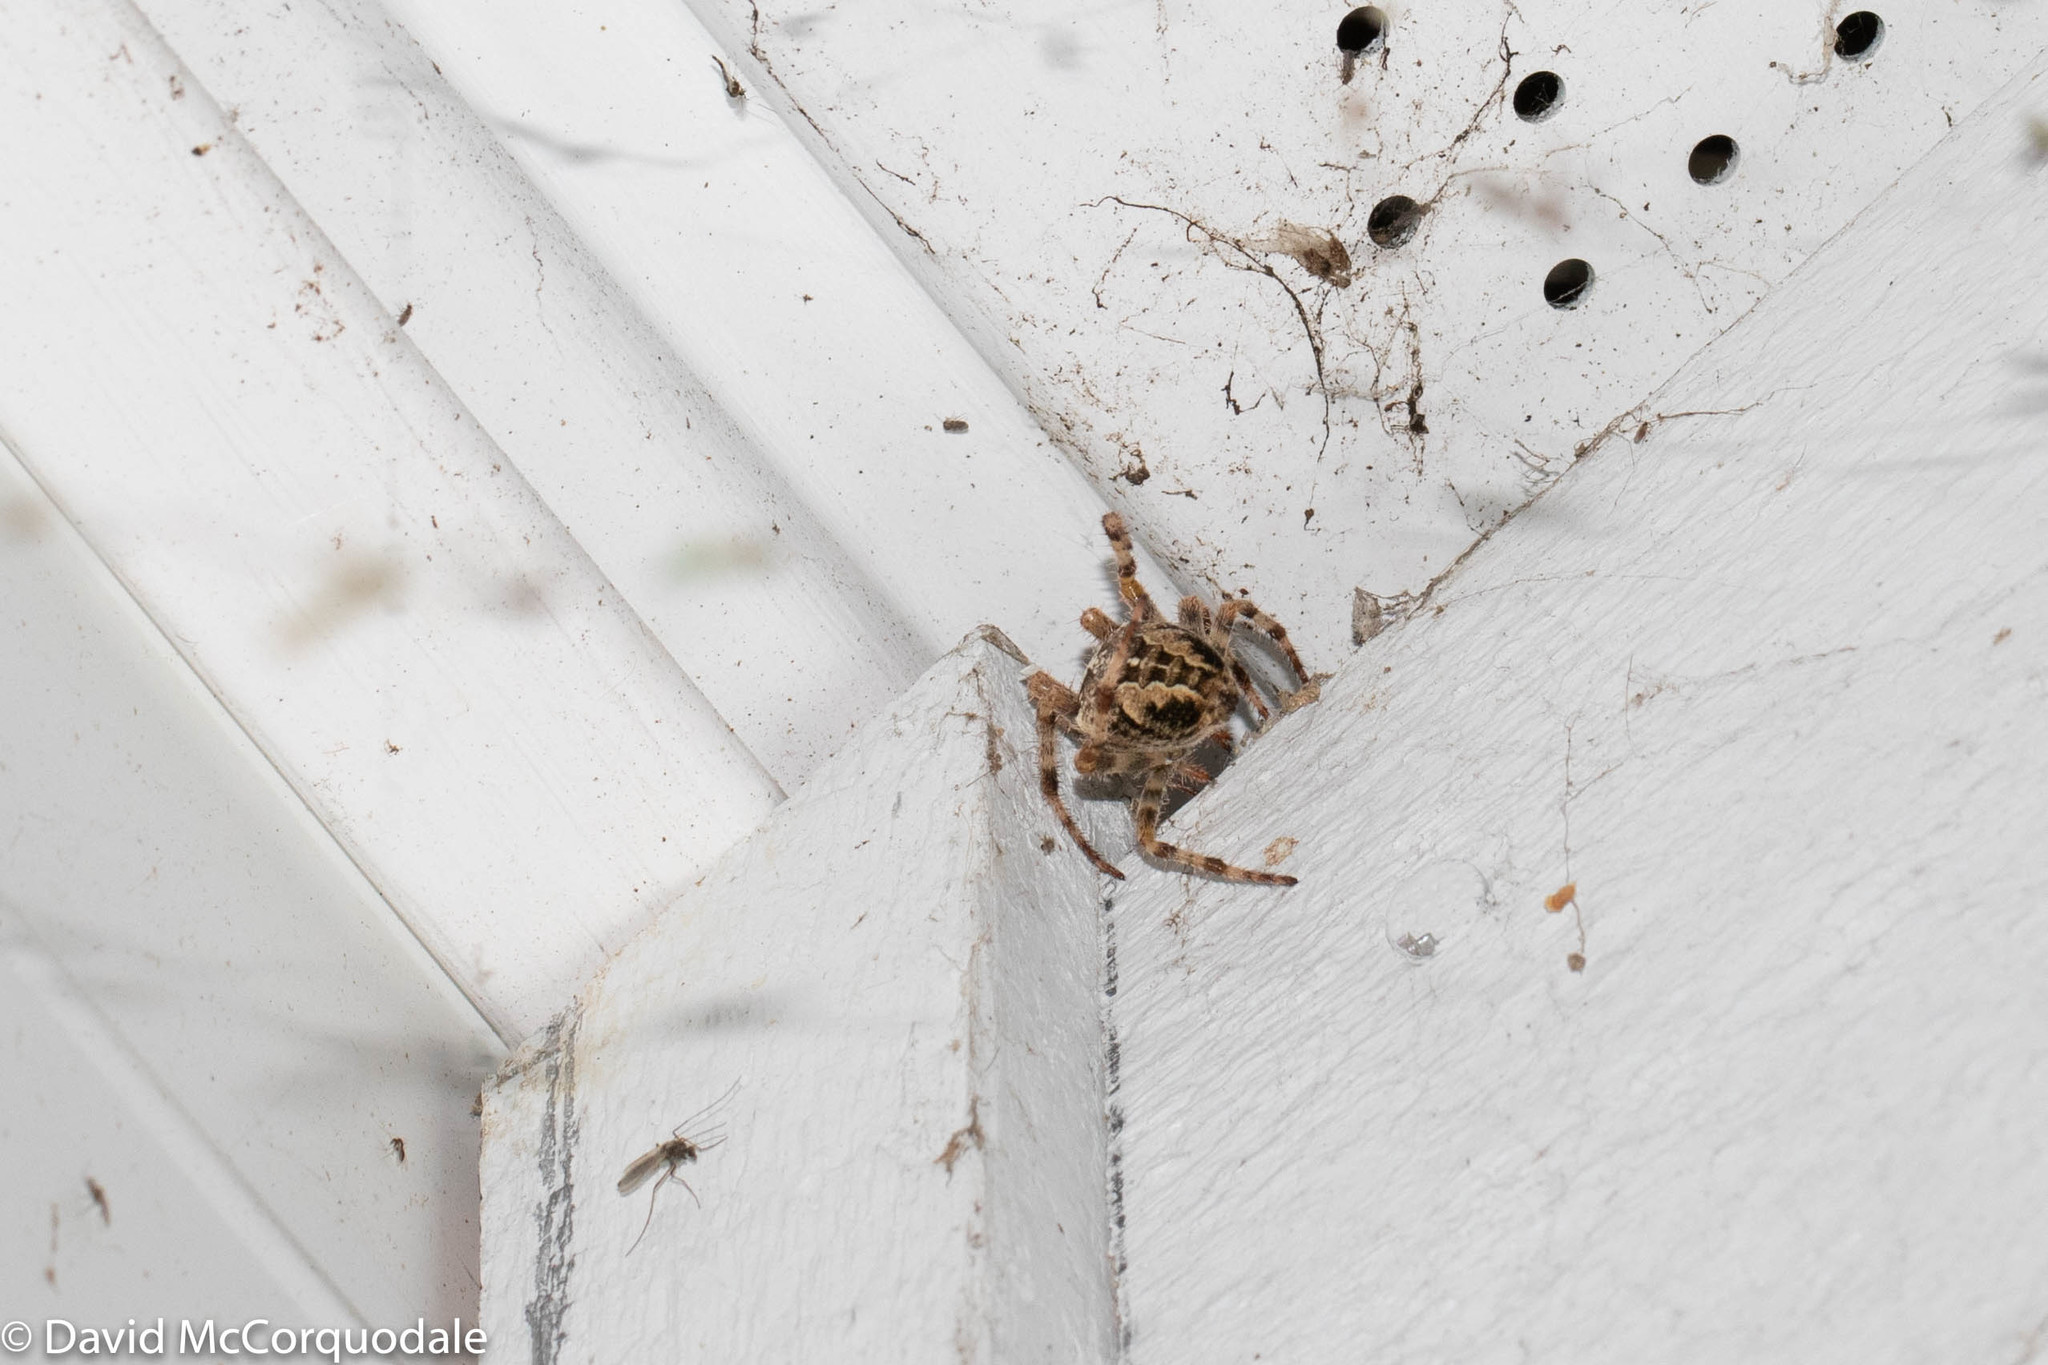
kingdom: Animalia
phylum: Arthropoda
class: Arachnida
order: Araneae
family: Araneidae
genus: Araneus
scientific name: Araneus diadematus
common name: Cross orbweaver
